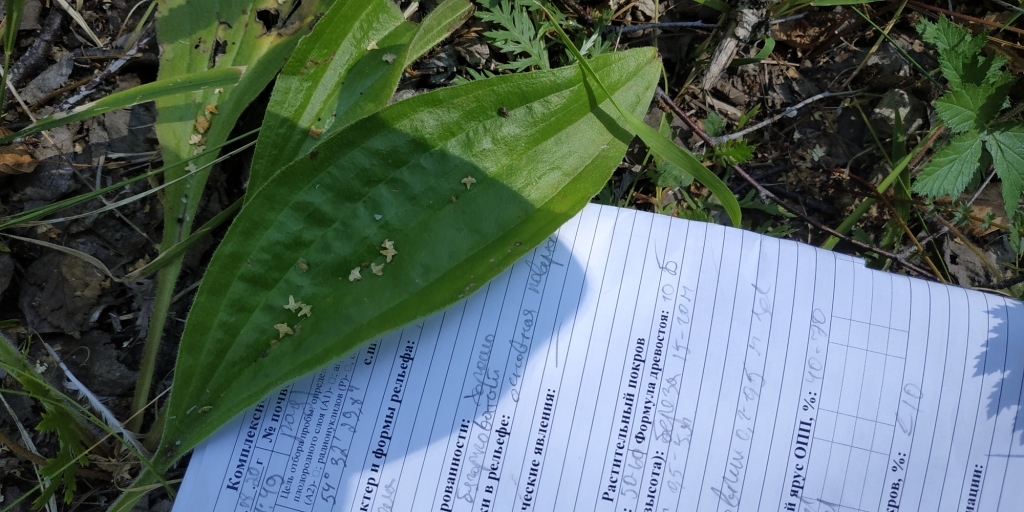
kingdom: Plantae
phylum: Tracheophyta
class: Magnoliopsida
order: Lamiales
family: Plantaginaceae
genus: Plantago
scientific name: Plantago urvillei
